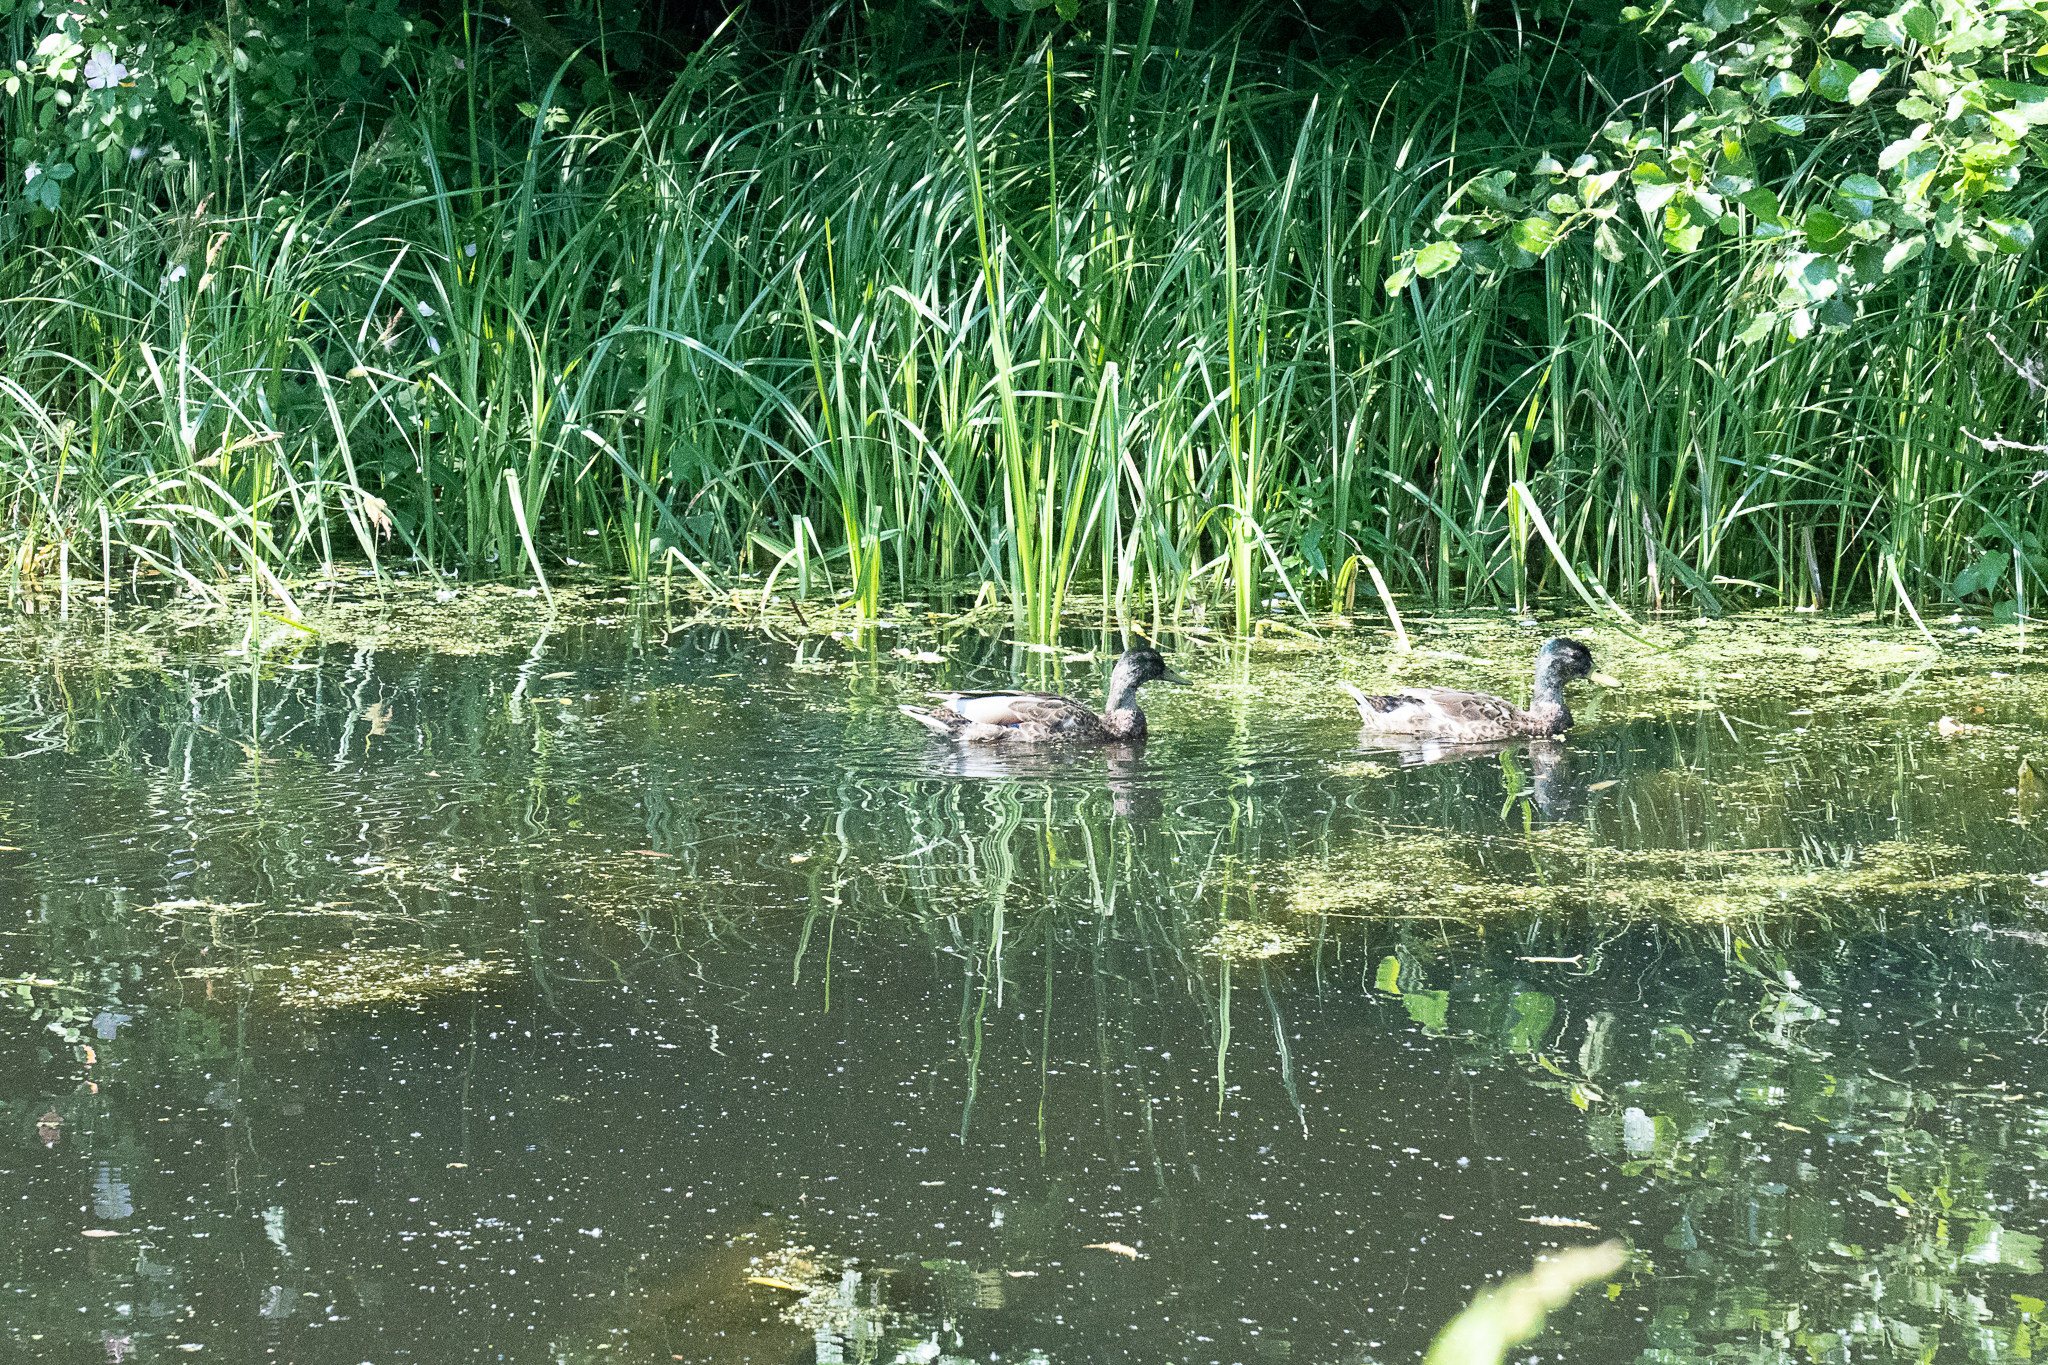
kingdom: Animalia
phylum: Chordata
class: Aves
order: Anseriformes
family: Anatidae
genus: Anas
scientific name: Anas platyrhynchos
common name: Mallard
